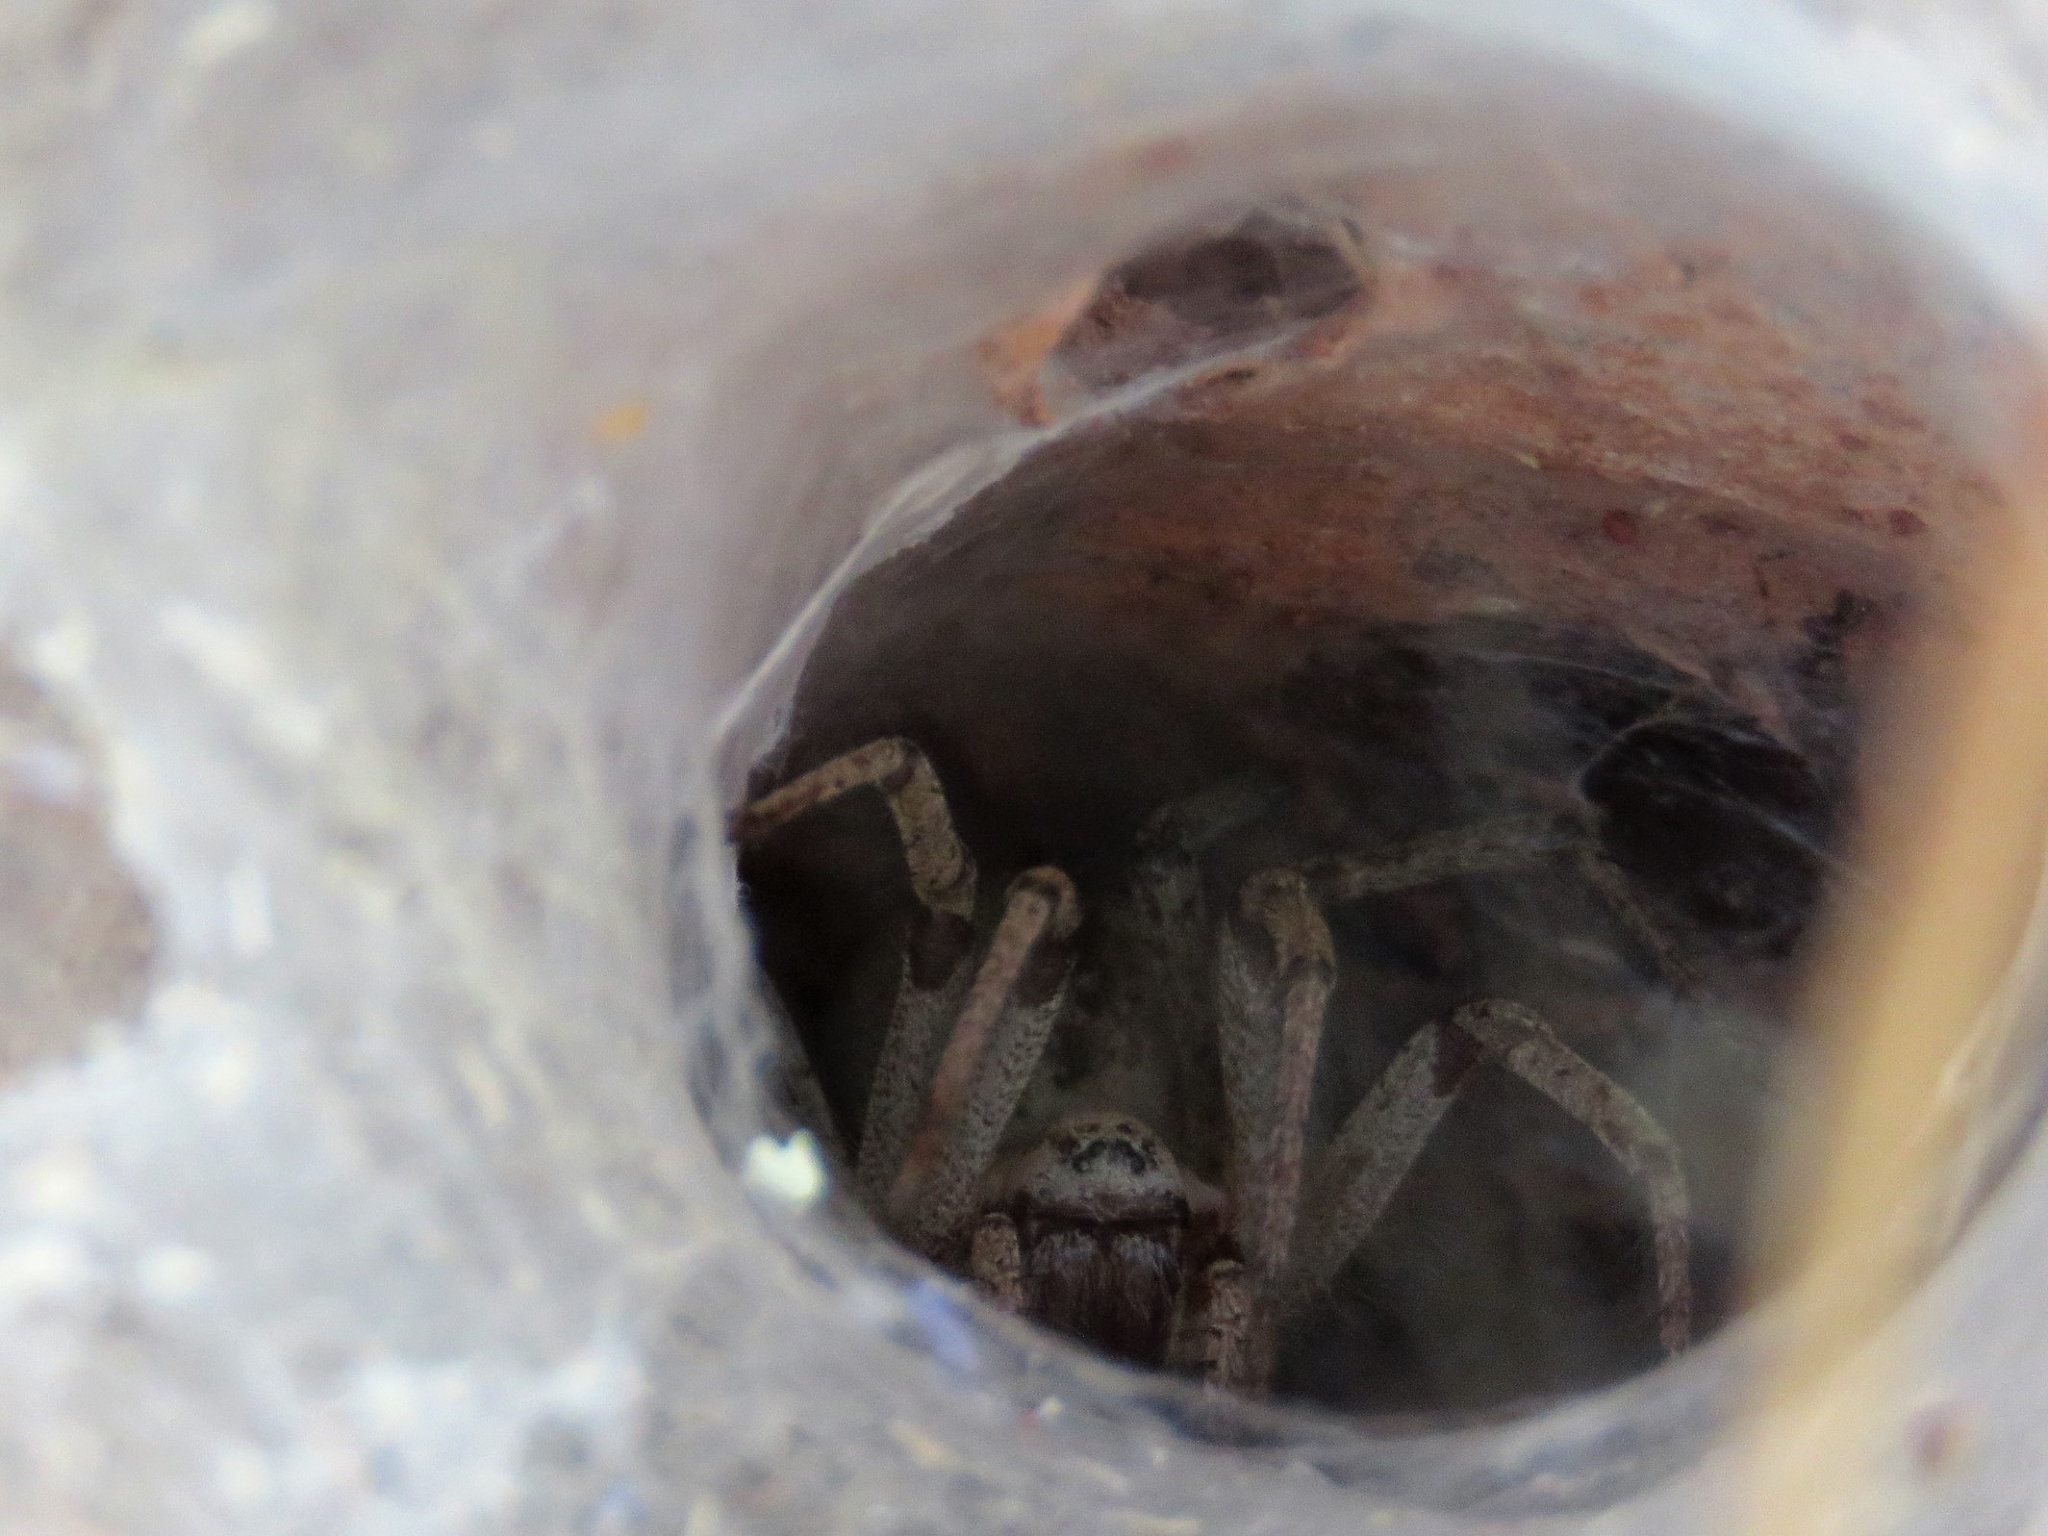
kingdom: Animalia
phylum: Arthropoda
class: Arachnida
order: Araneae
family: Agelenidae
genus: Agelena
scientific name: Agelena labyrinthica
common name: Labyrinth spider
